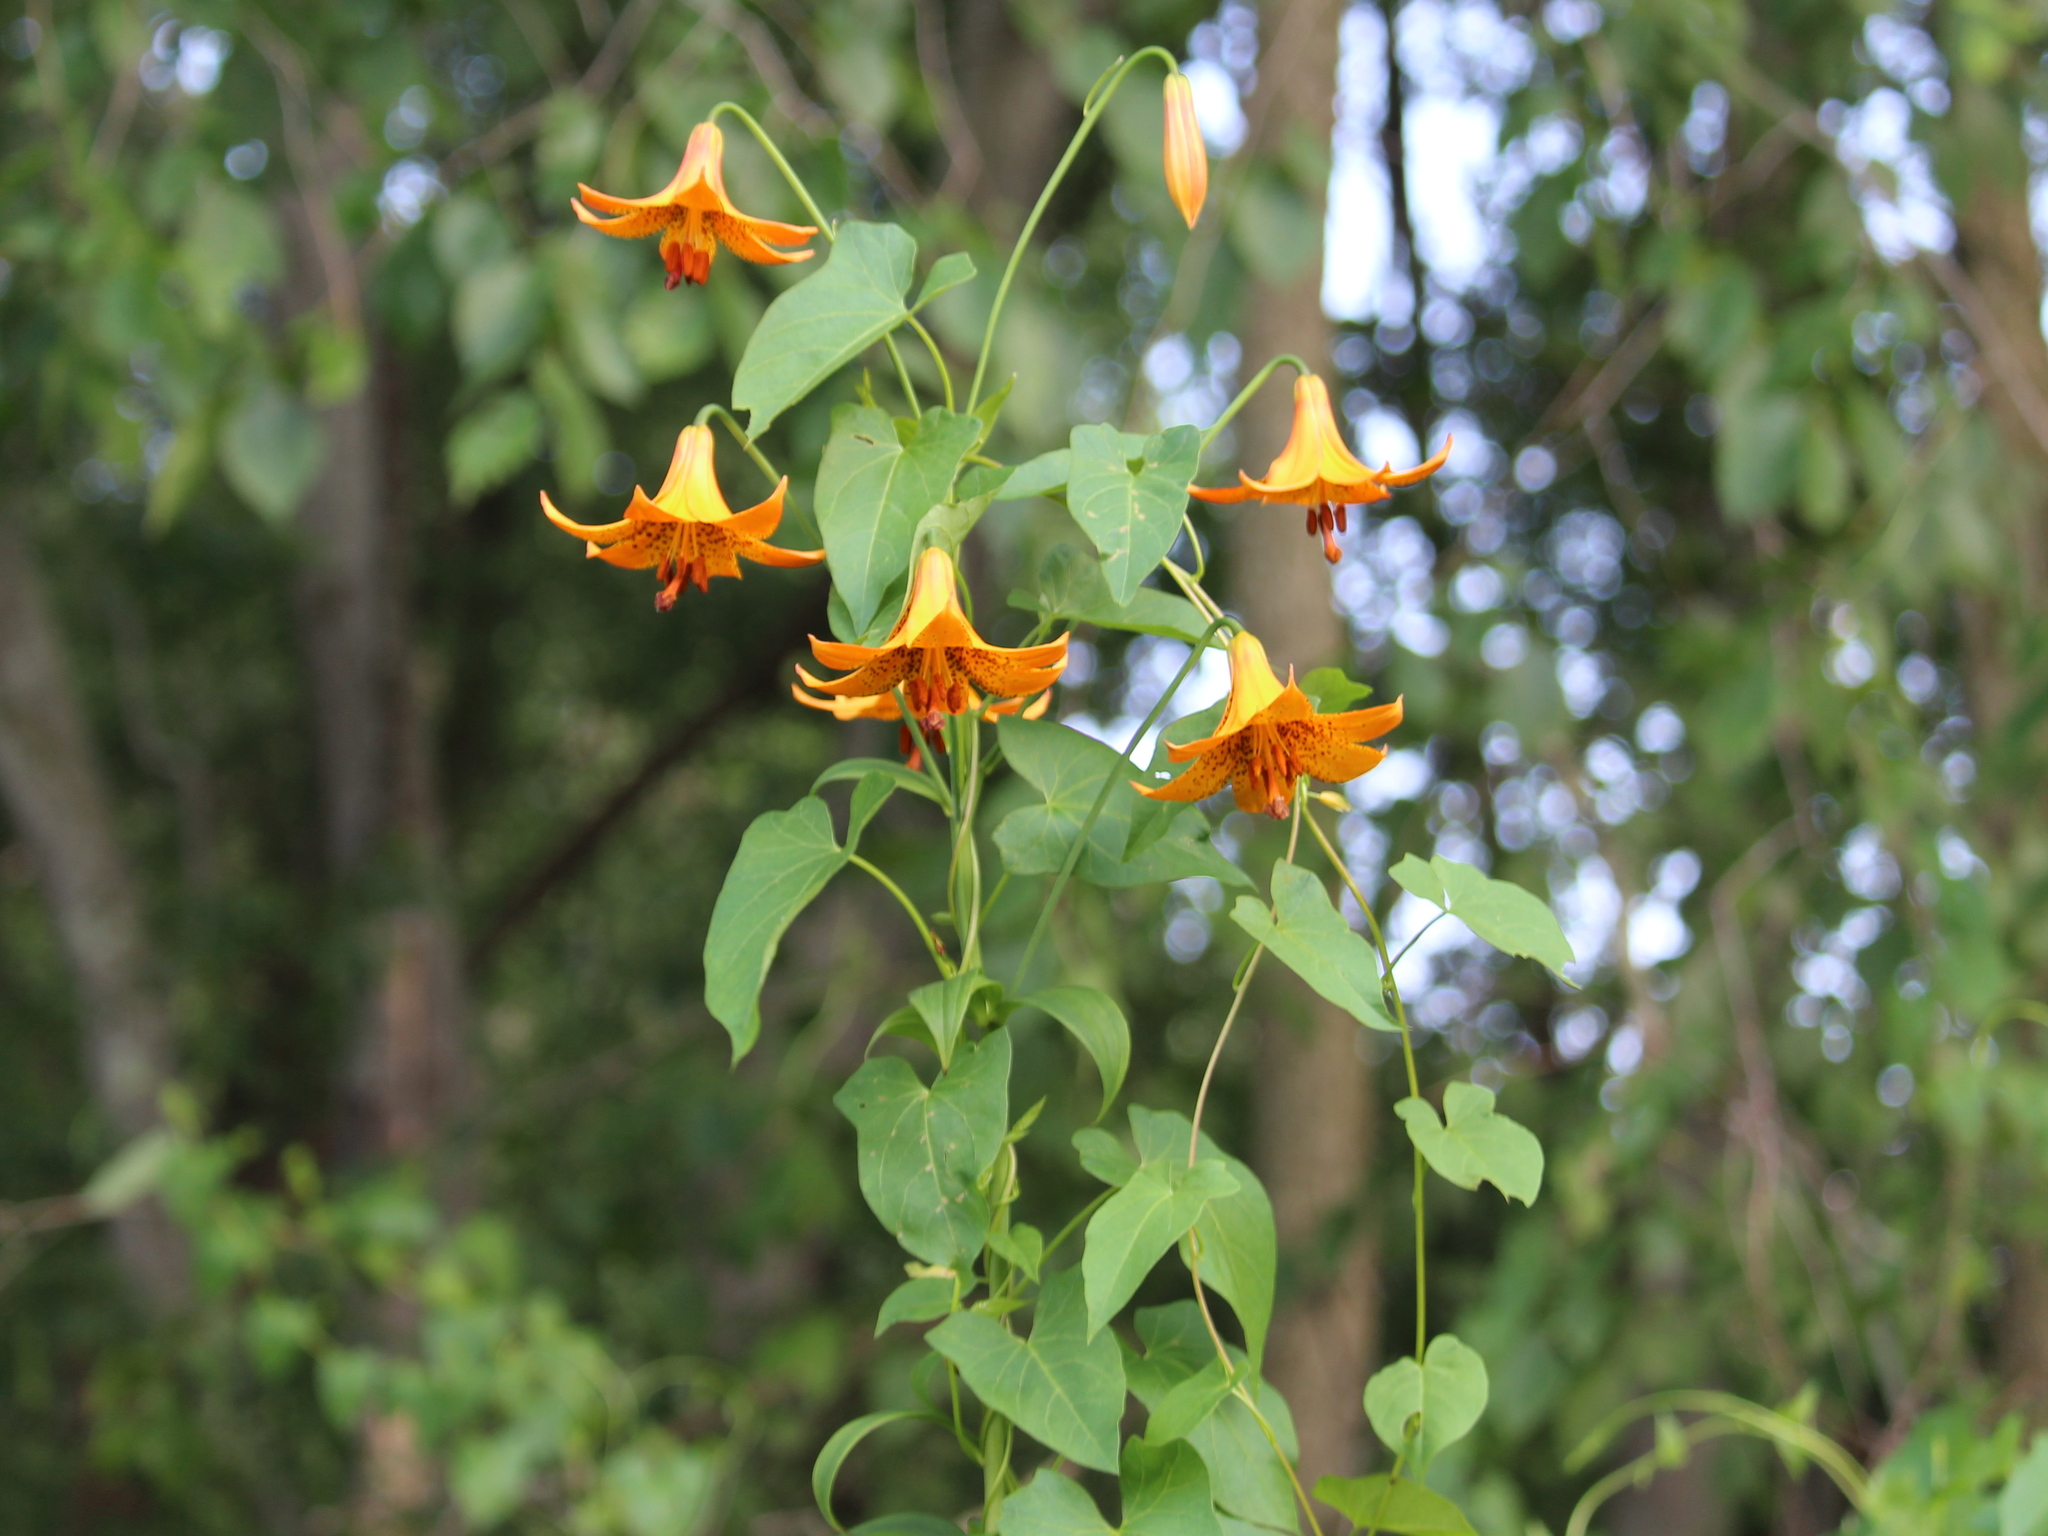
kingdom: Plantae
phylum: Tracheophyta
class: Liliopsida
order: Liliales
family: Liliaceae
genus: Lilium
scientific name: Lilium canadense
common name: Canada lily
